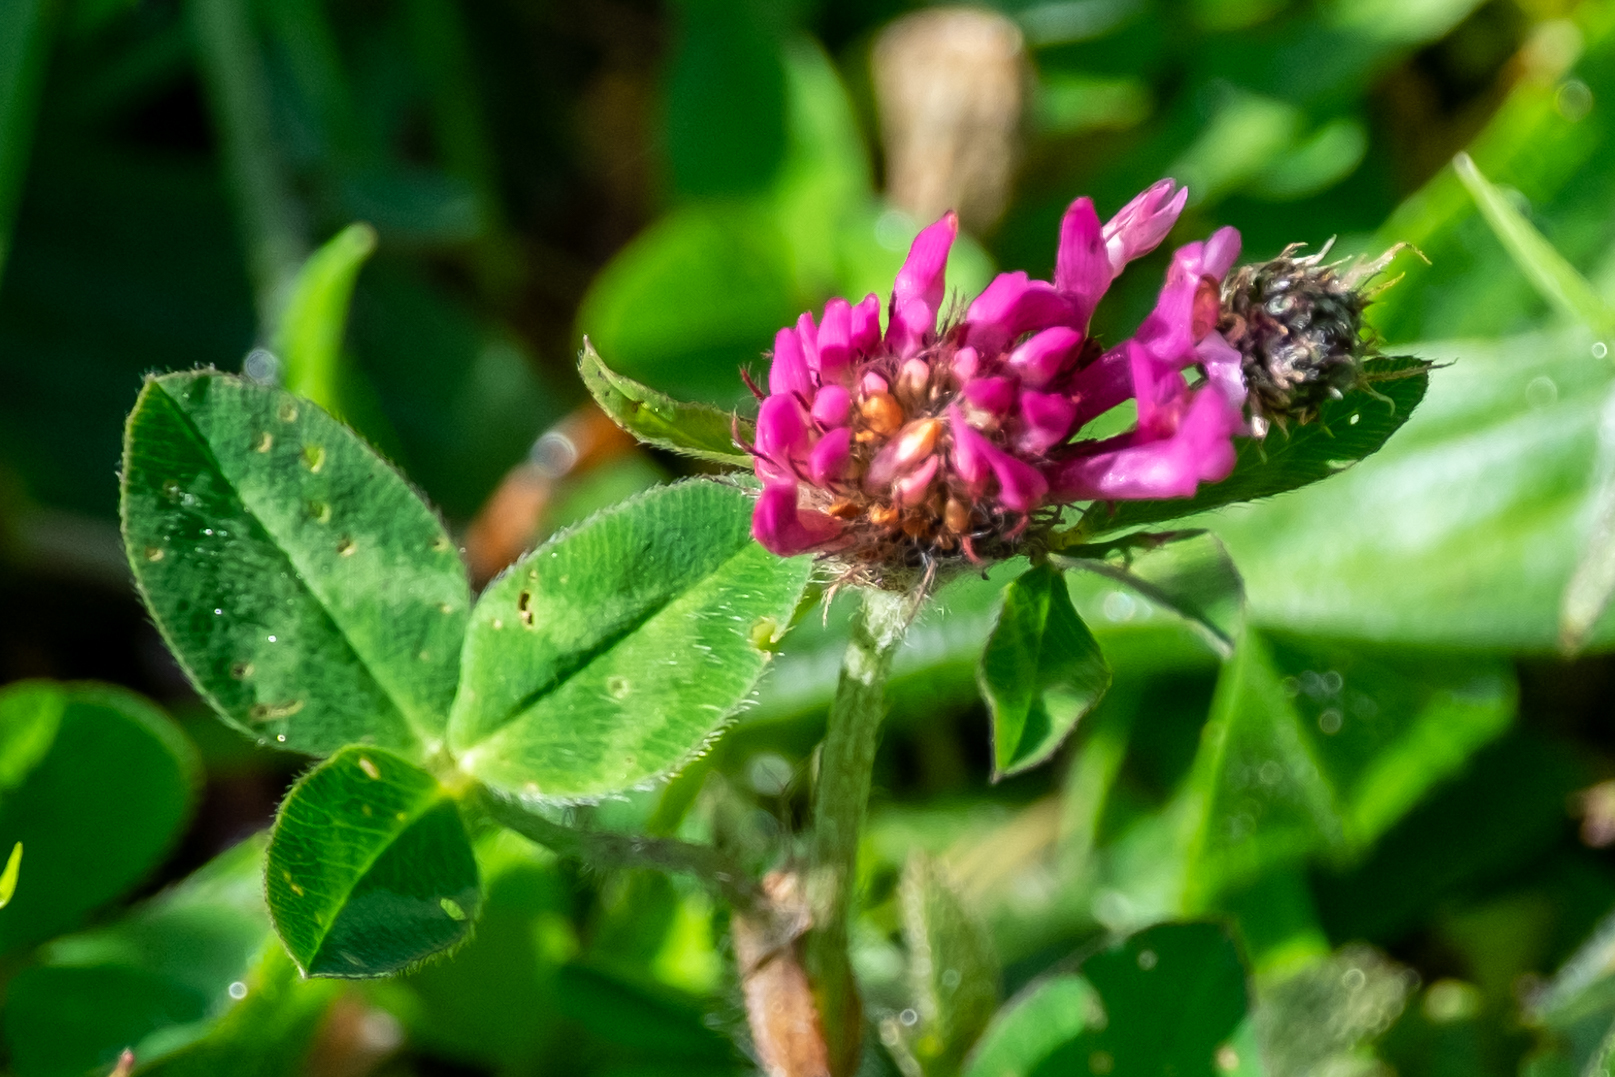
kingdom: Plantae
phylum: Tracheophyta
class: Magnoliopsida
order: Fabales
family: Fabaceae
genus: Trifolium
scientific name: Trifolium pratense
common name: Red clover
